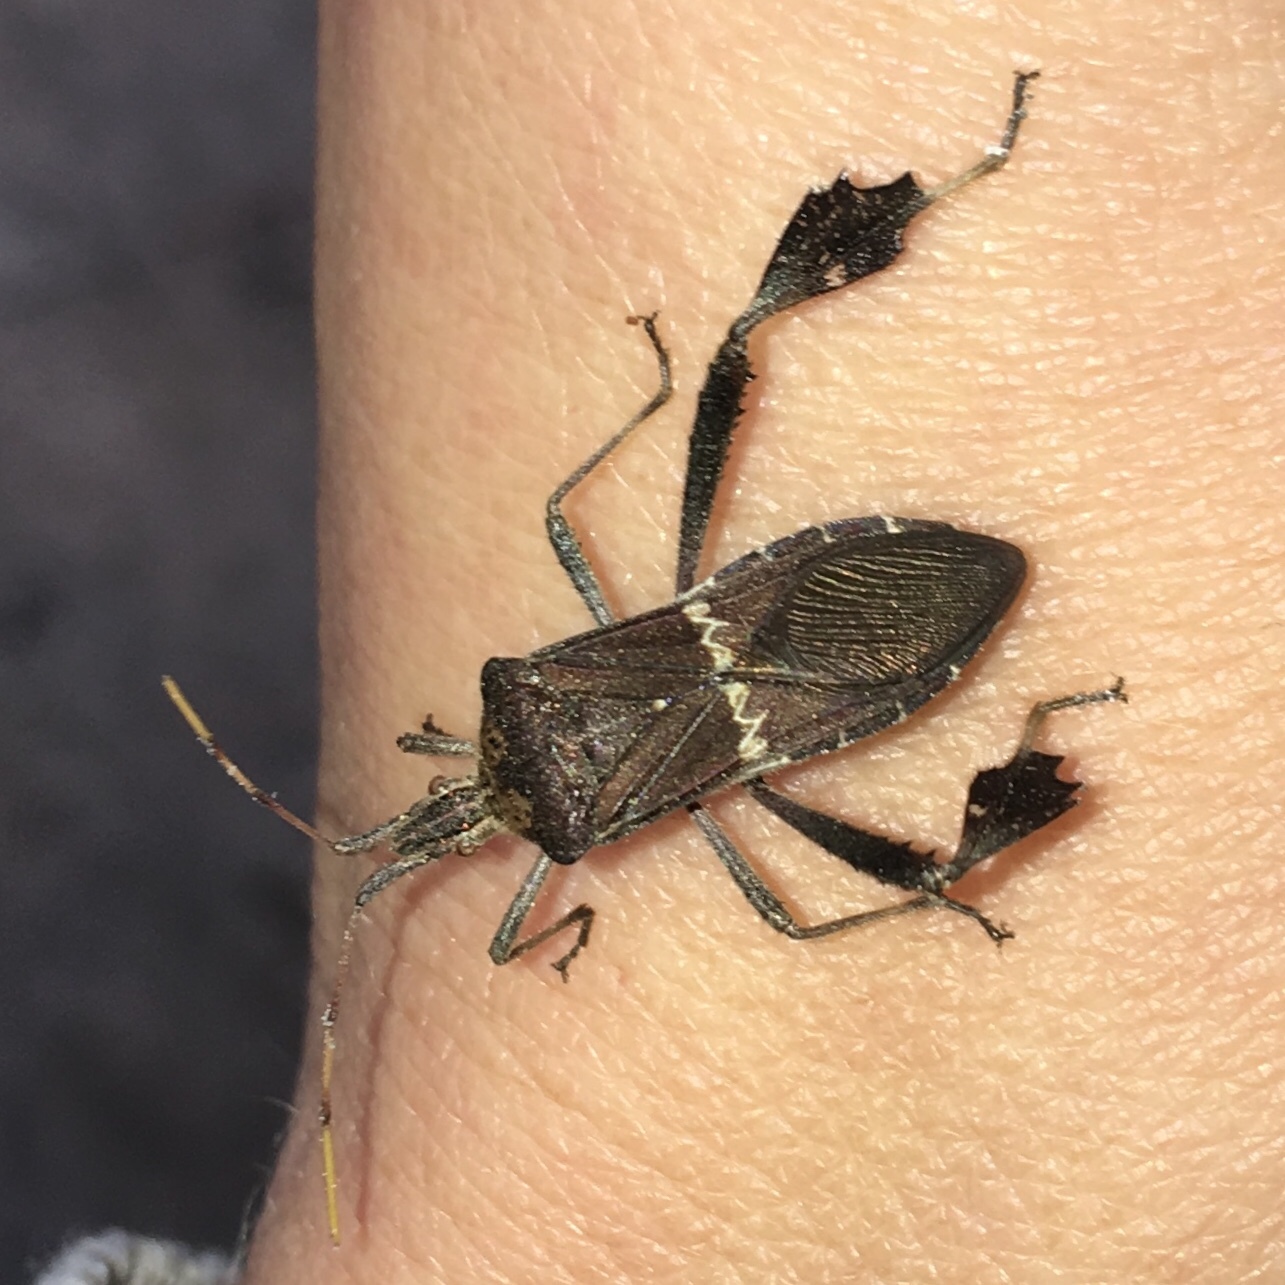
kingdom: Animalia
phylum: Arthropoda
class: Insecta
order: Hemiptera
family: Coreidae
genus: Leptoglossus
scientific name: Leptoglossus zonatus
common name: Large-legged bug
